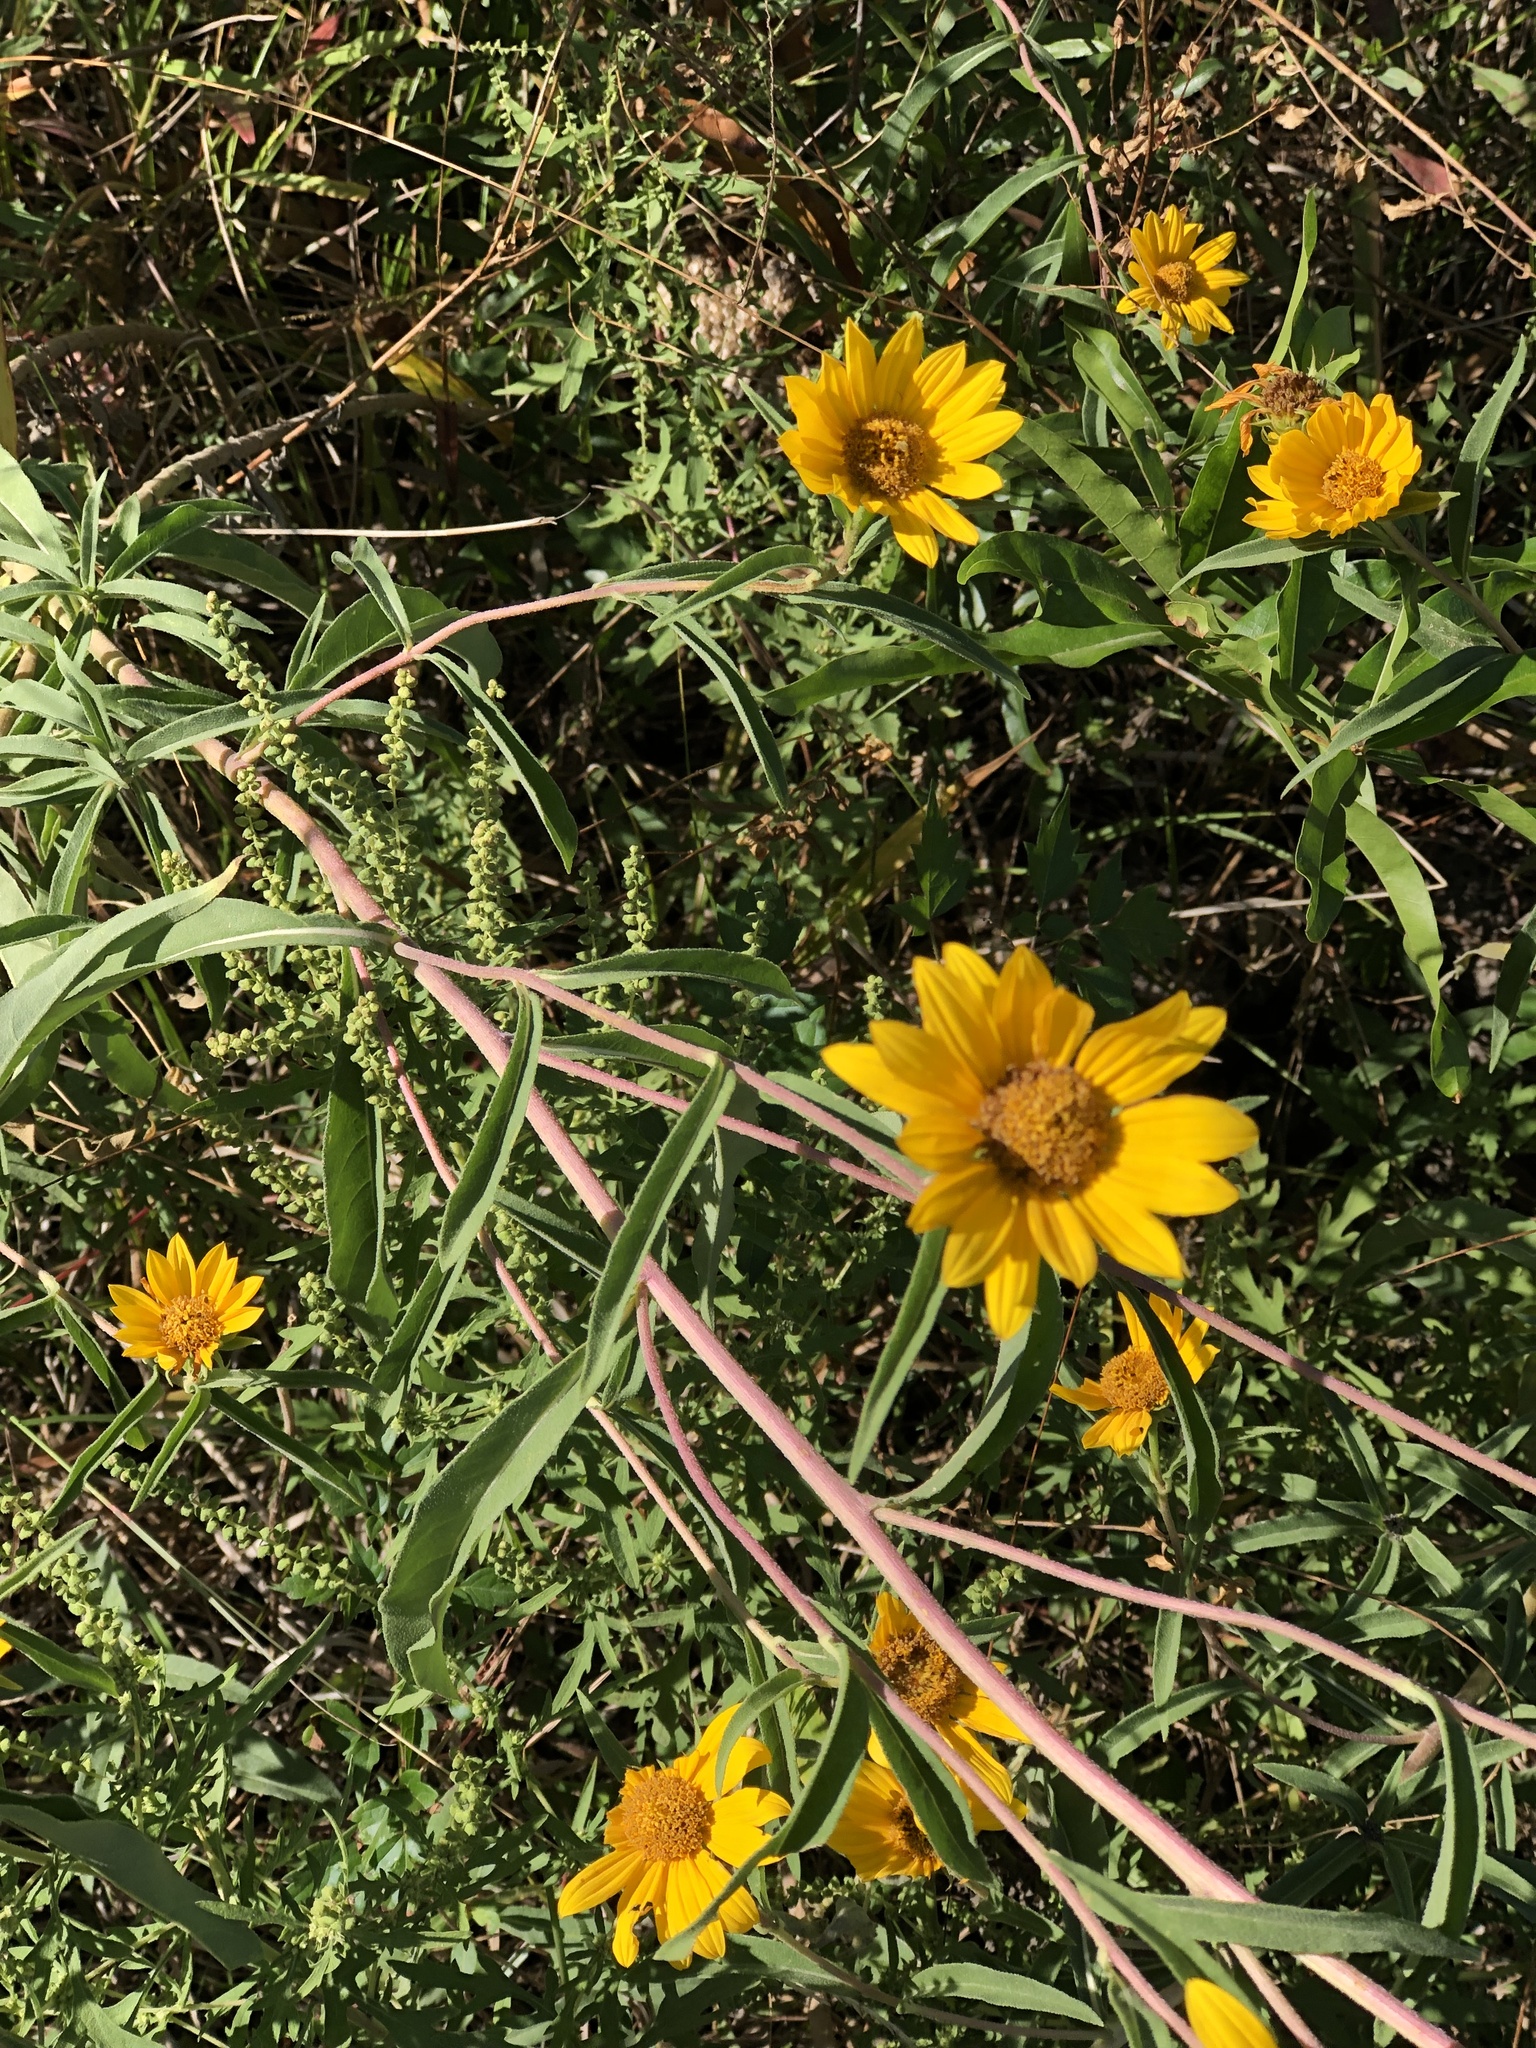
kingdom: Plantae
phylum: Tracheophyta
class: Magnoliopsida
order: Asterales
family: Asteraceae
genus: Helianthus
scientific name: Helianthus maximiliani
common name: Maximilian's sunflower
